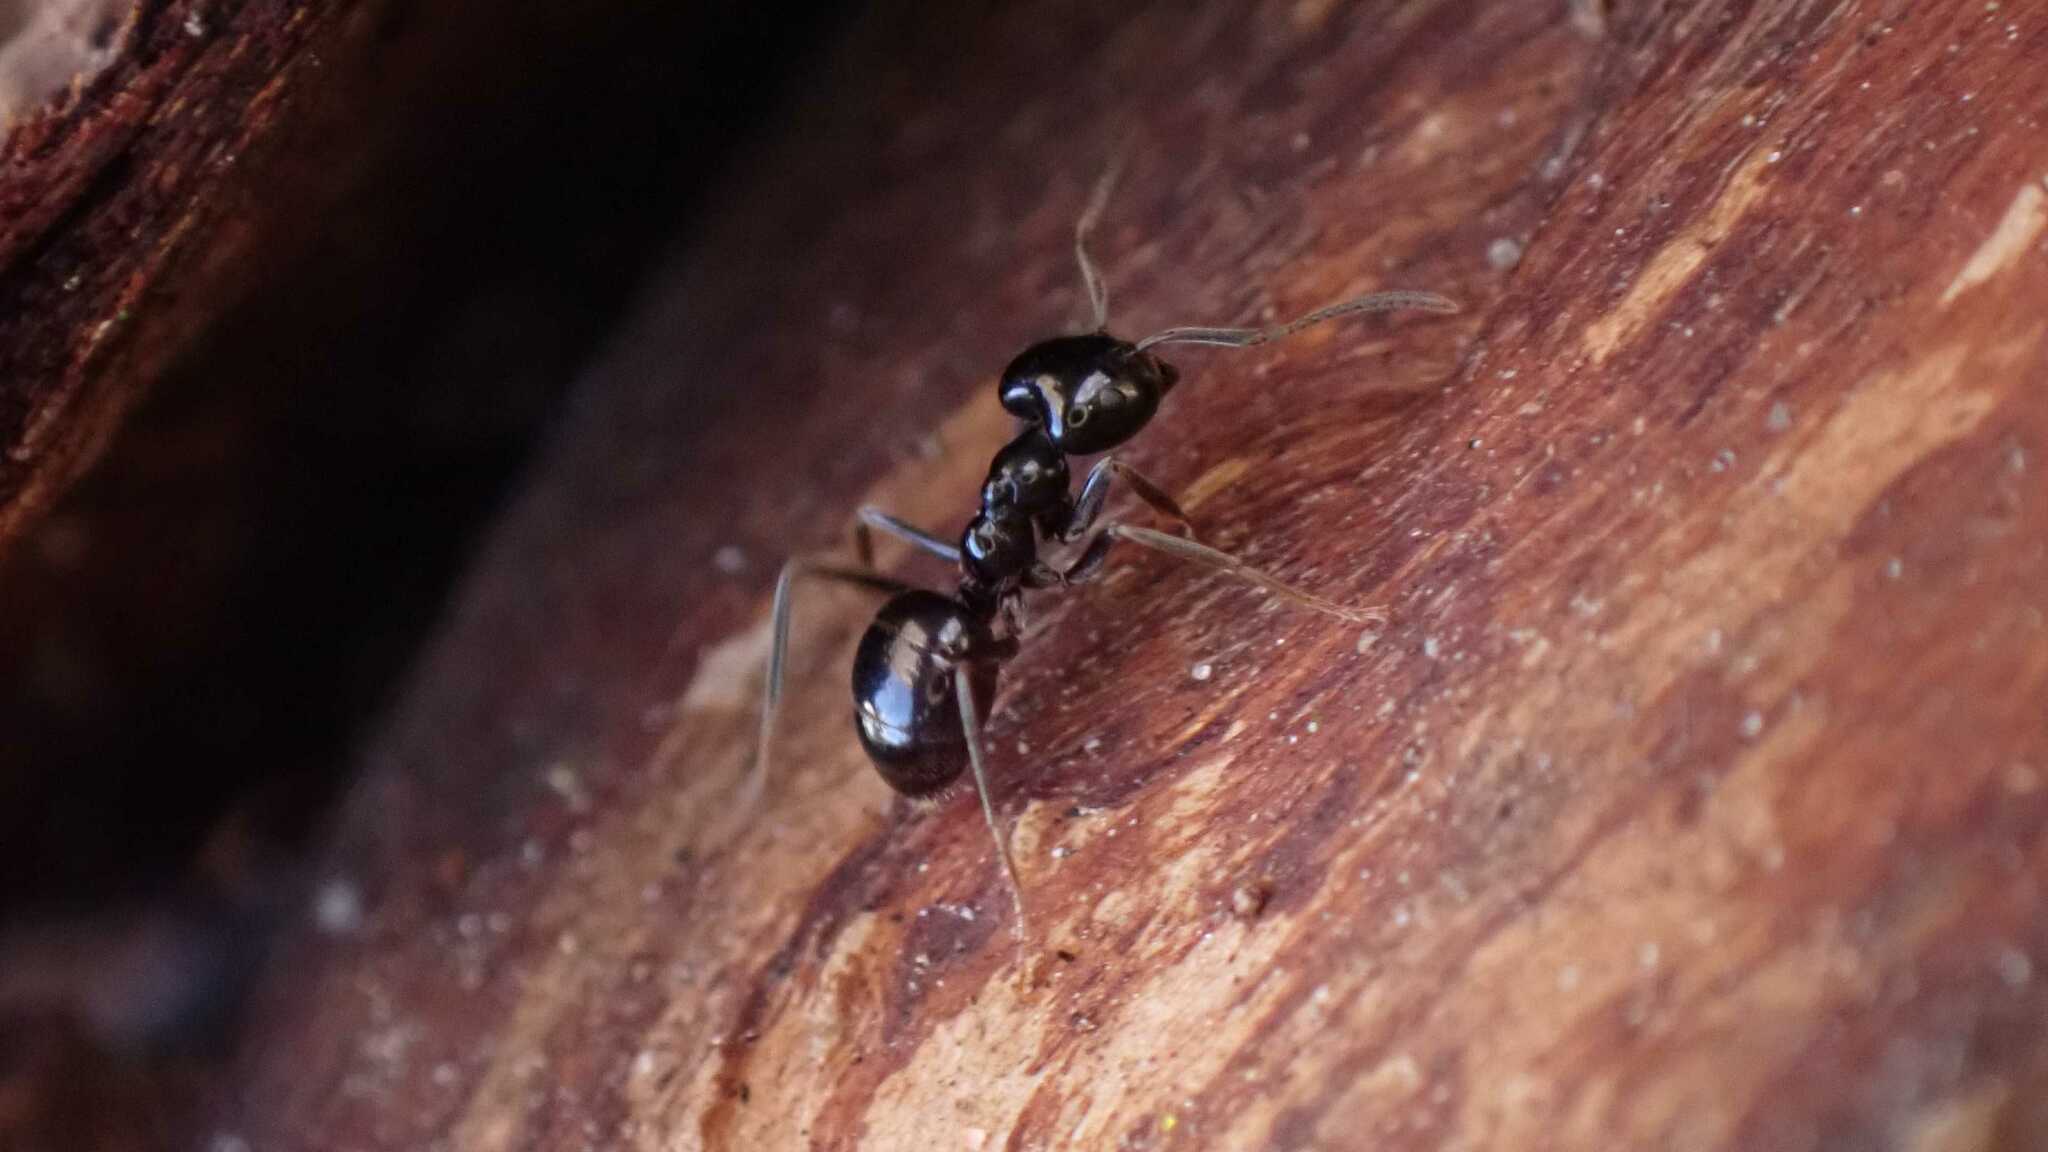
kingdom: Animalia
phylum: Arthropoda
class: Insecta
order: Hymenoptera
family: Formicidae
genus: Lasius
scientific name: Lasius fuliginosus
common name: Jet ant
